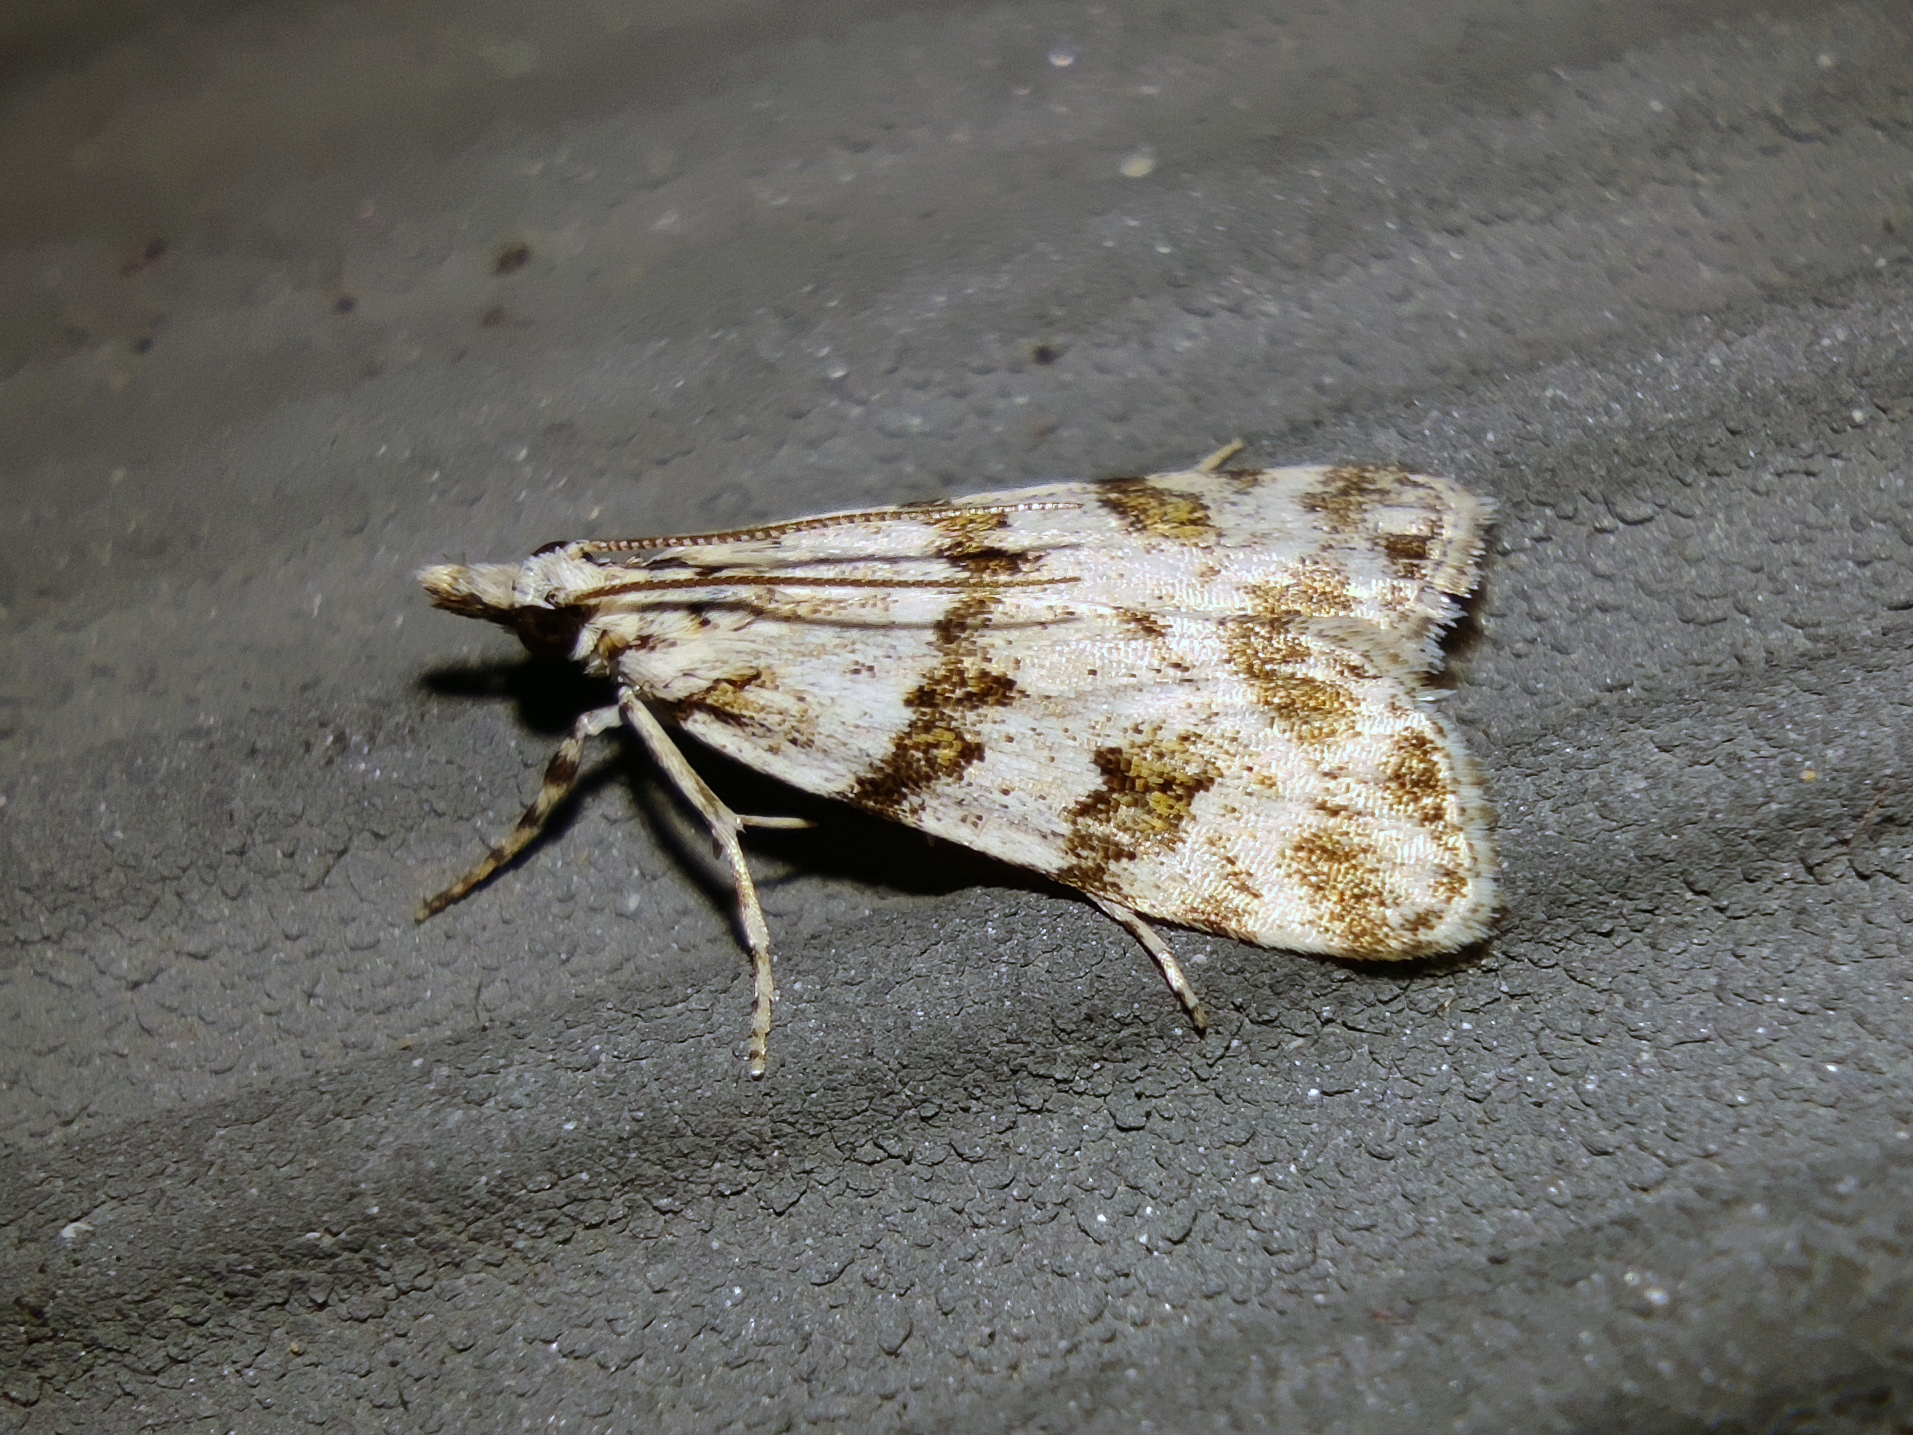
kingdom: Animalia
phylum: Arthropoda
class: Insecta
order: Lepidoptera
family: Crambidae
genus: Scoparia
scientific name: Scoparia ingratella
